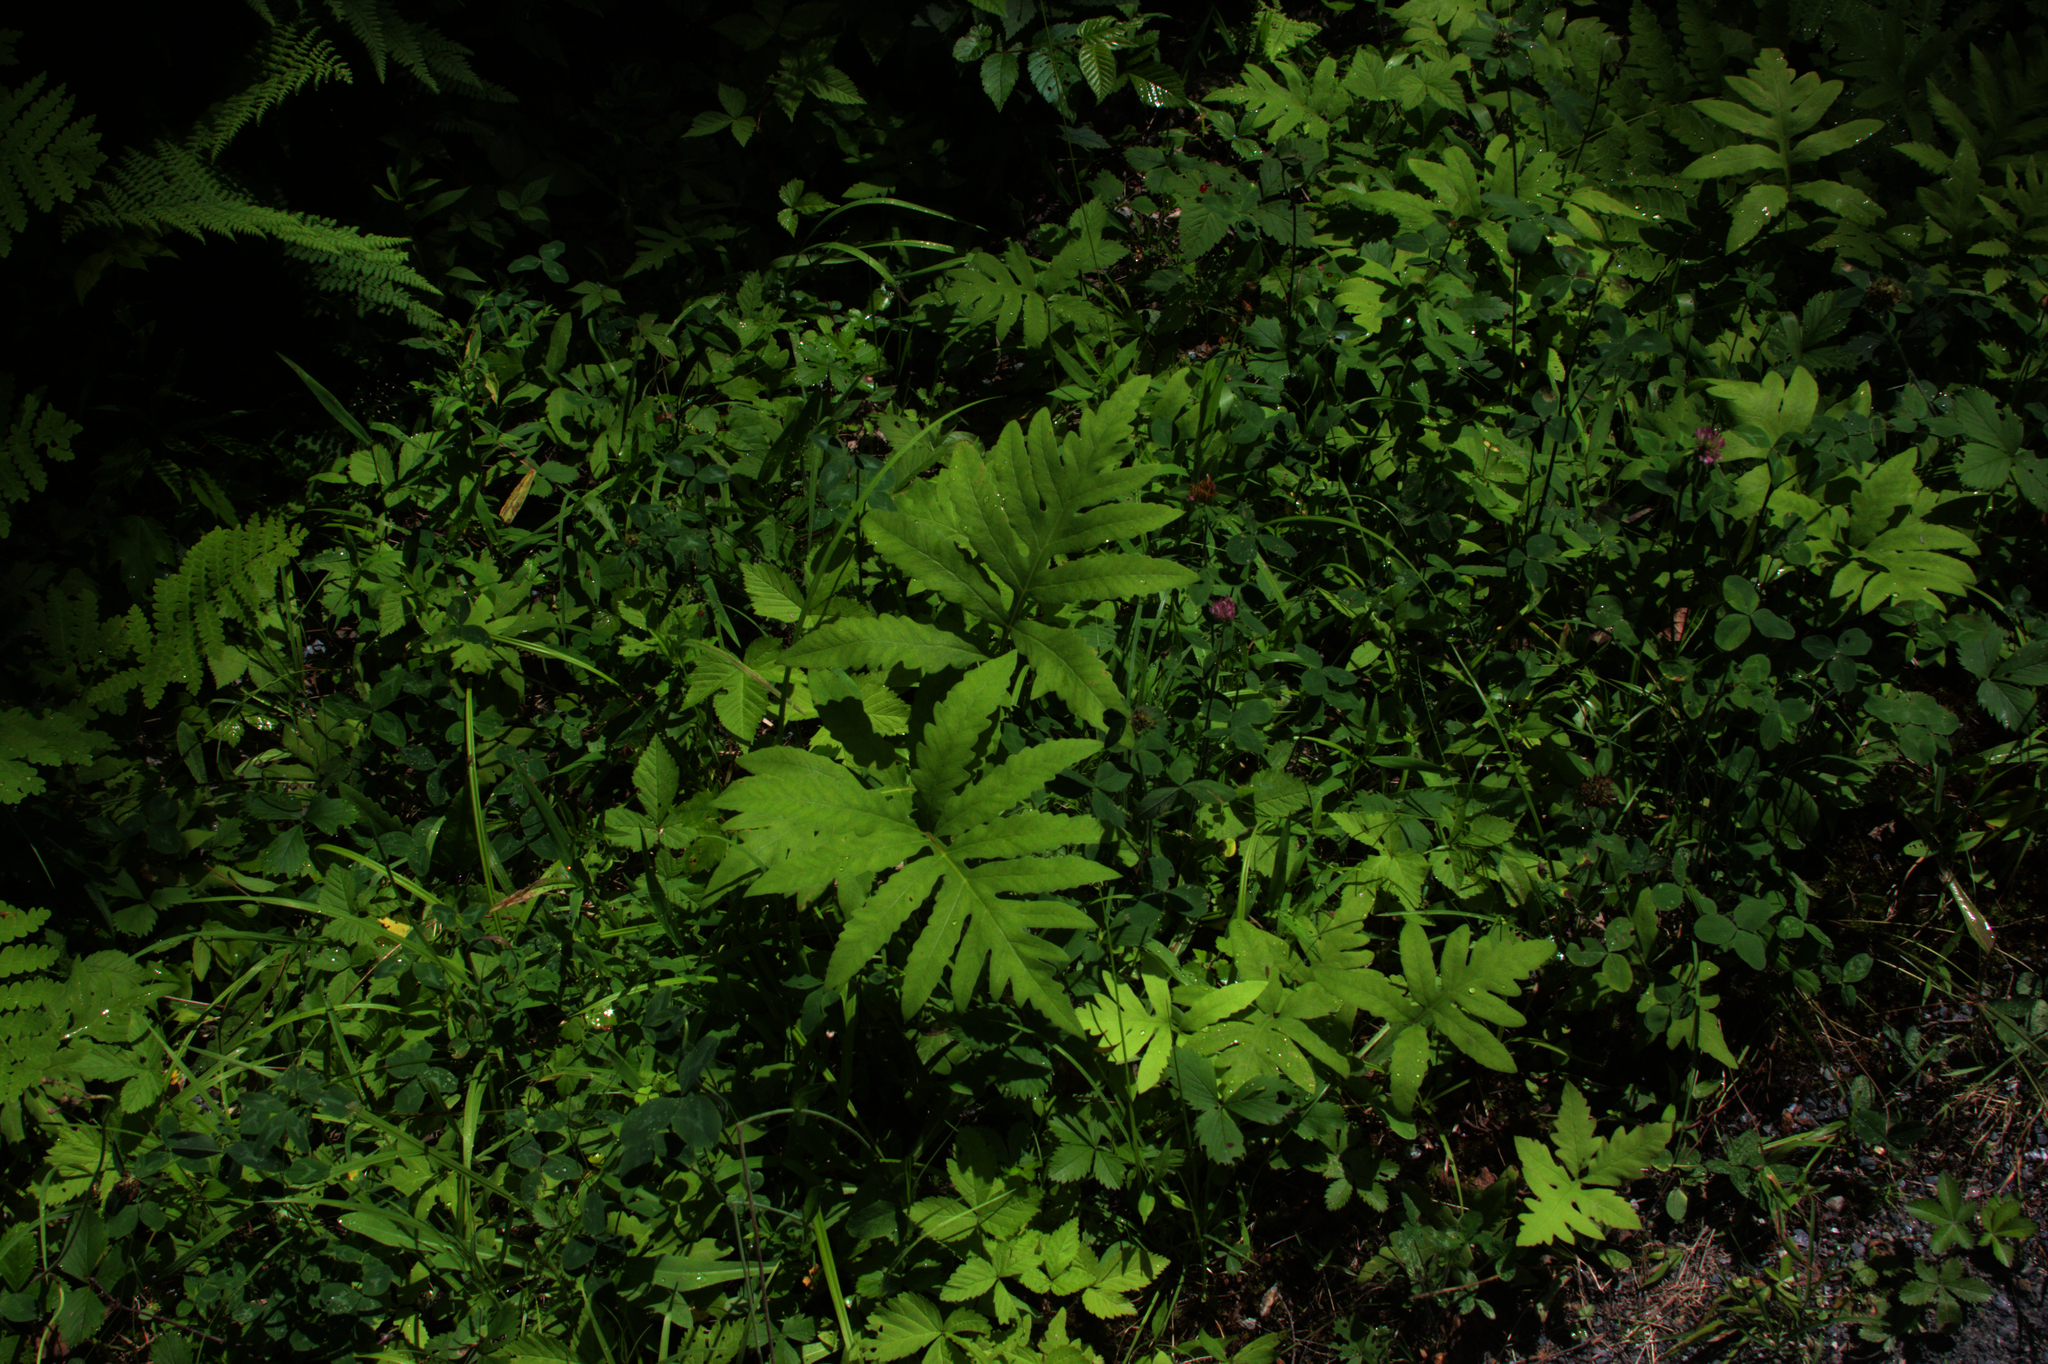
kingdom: Plantae
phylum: Tracheophyta
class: Polypodiopsida
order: Polypodiales
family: Onocleaceae
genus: Onoclea
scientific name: Onoclea sensibilis
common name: Sensitive fern
